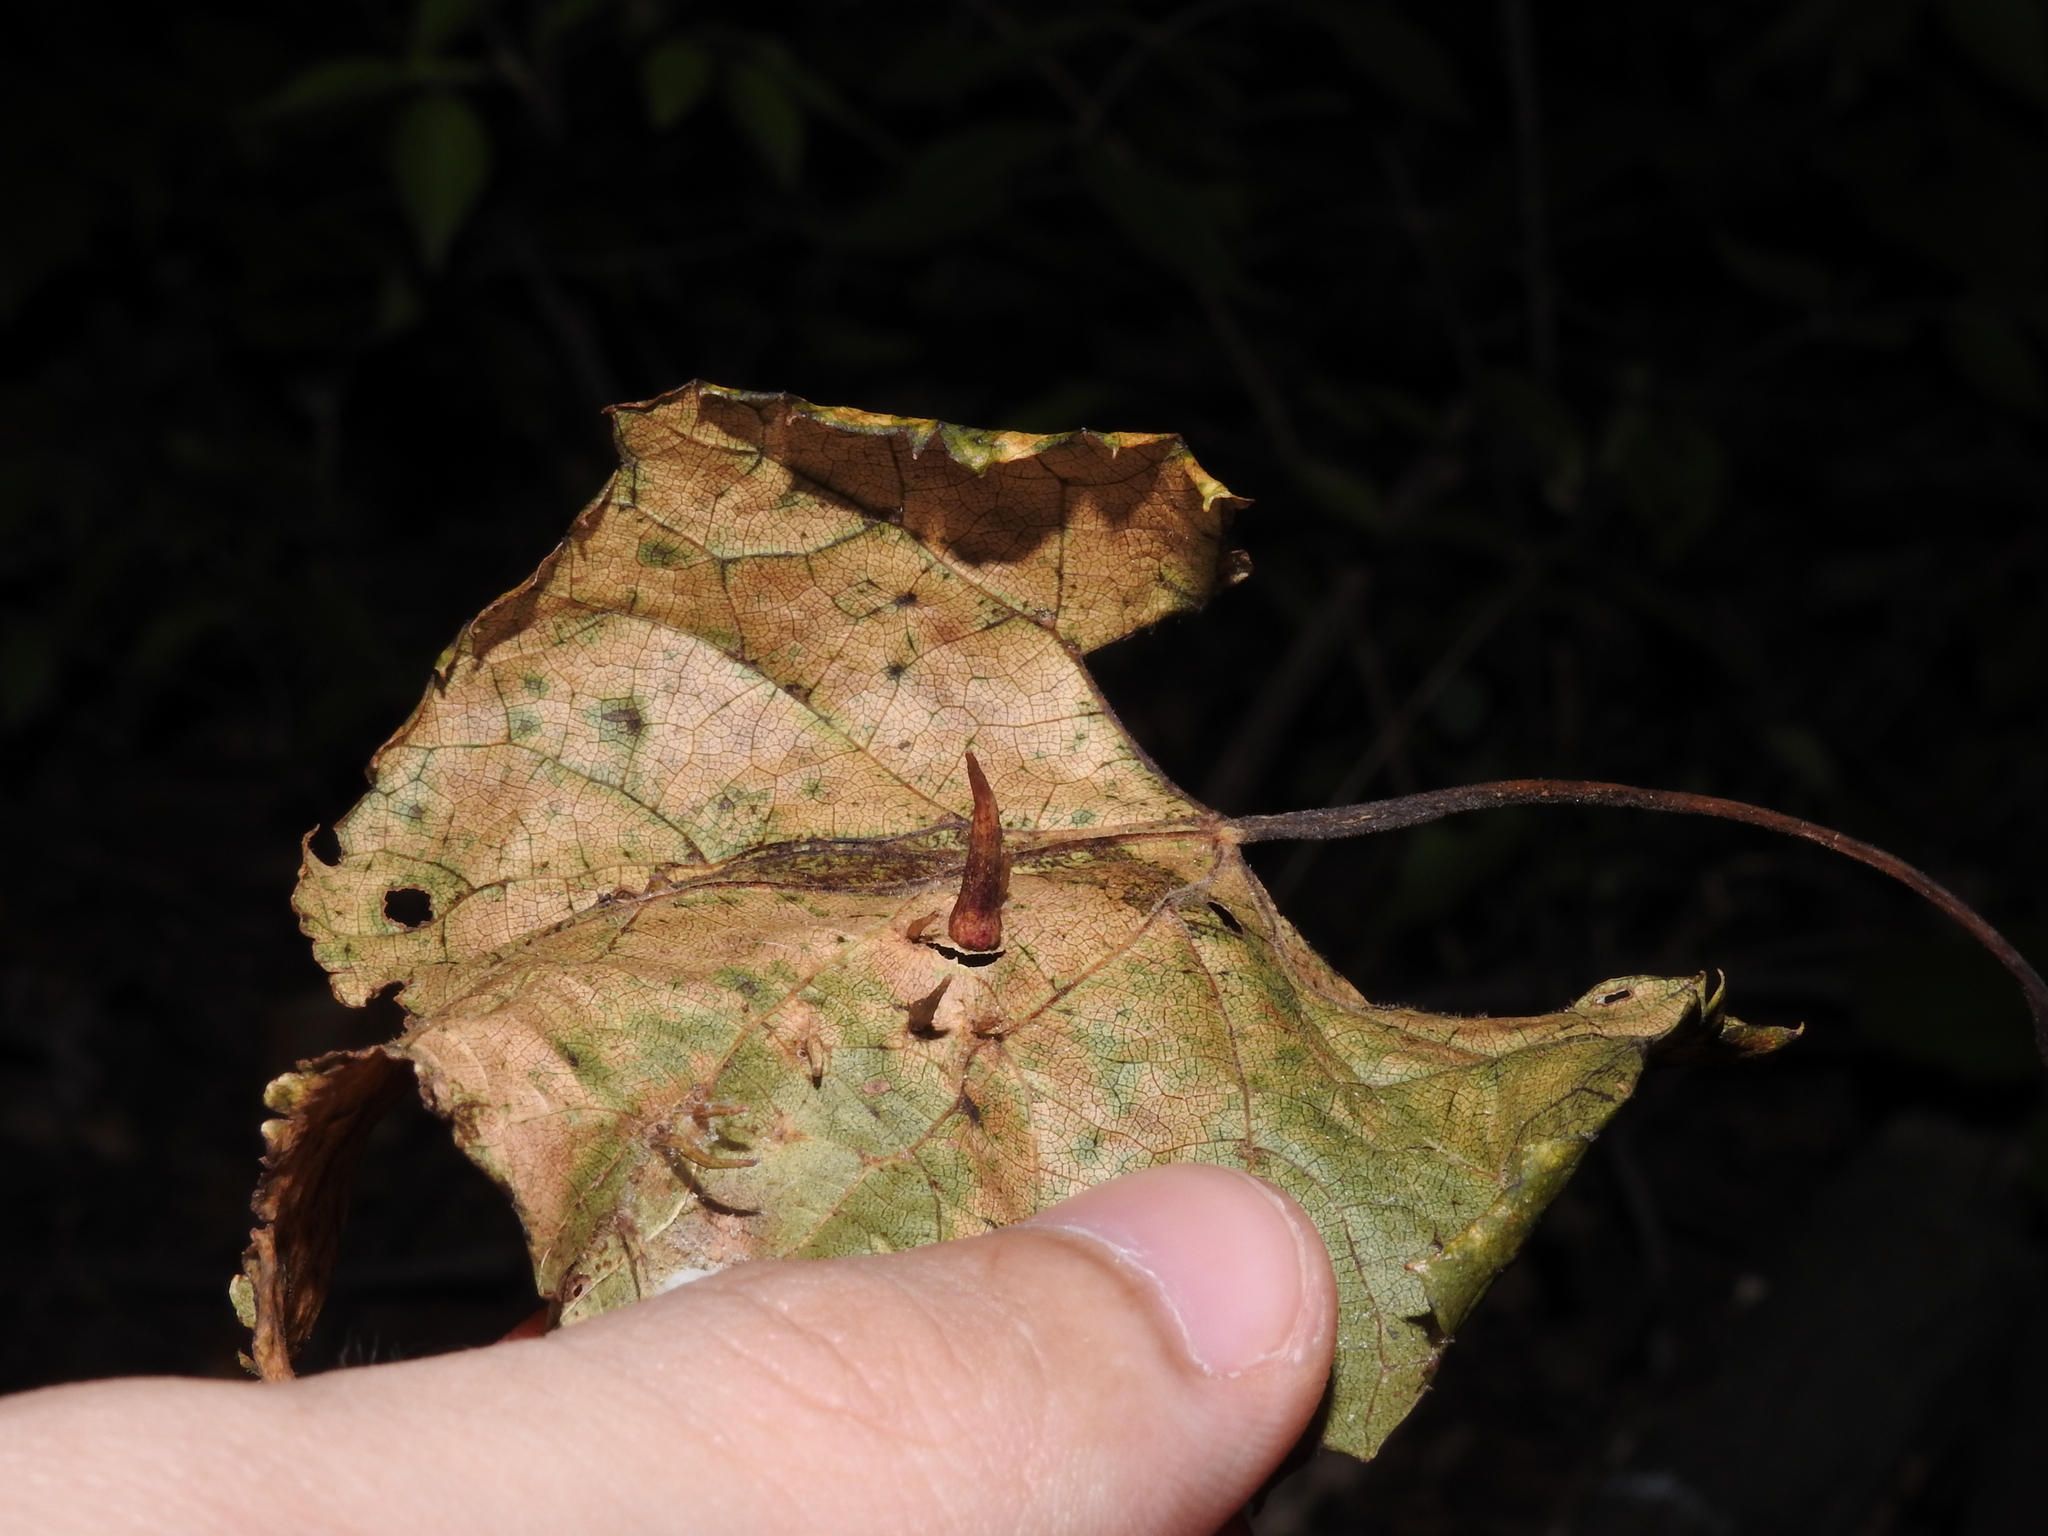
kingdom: Animalia
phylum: Arthropoda
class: Insecta
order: Diptera
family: Cecidomyiidae
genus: Ampelomyia
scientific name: Ampelomyia viticola
